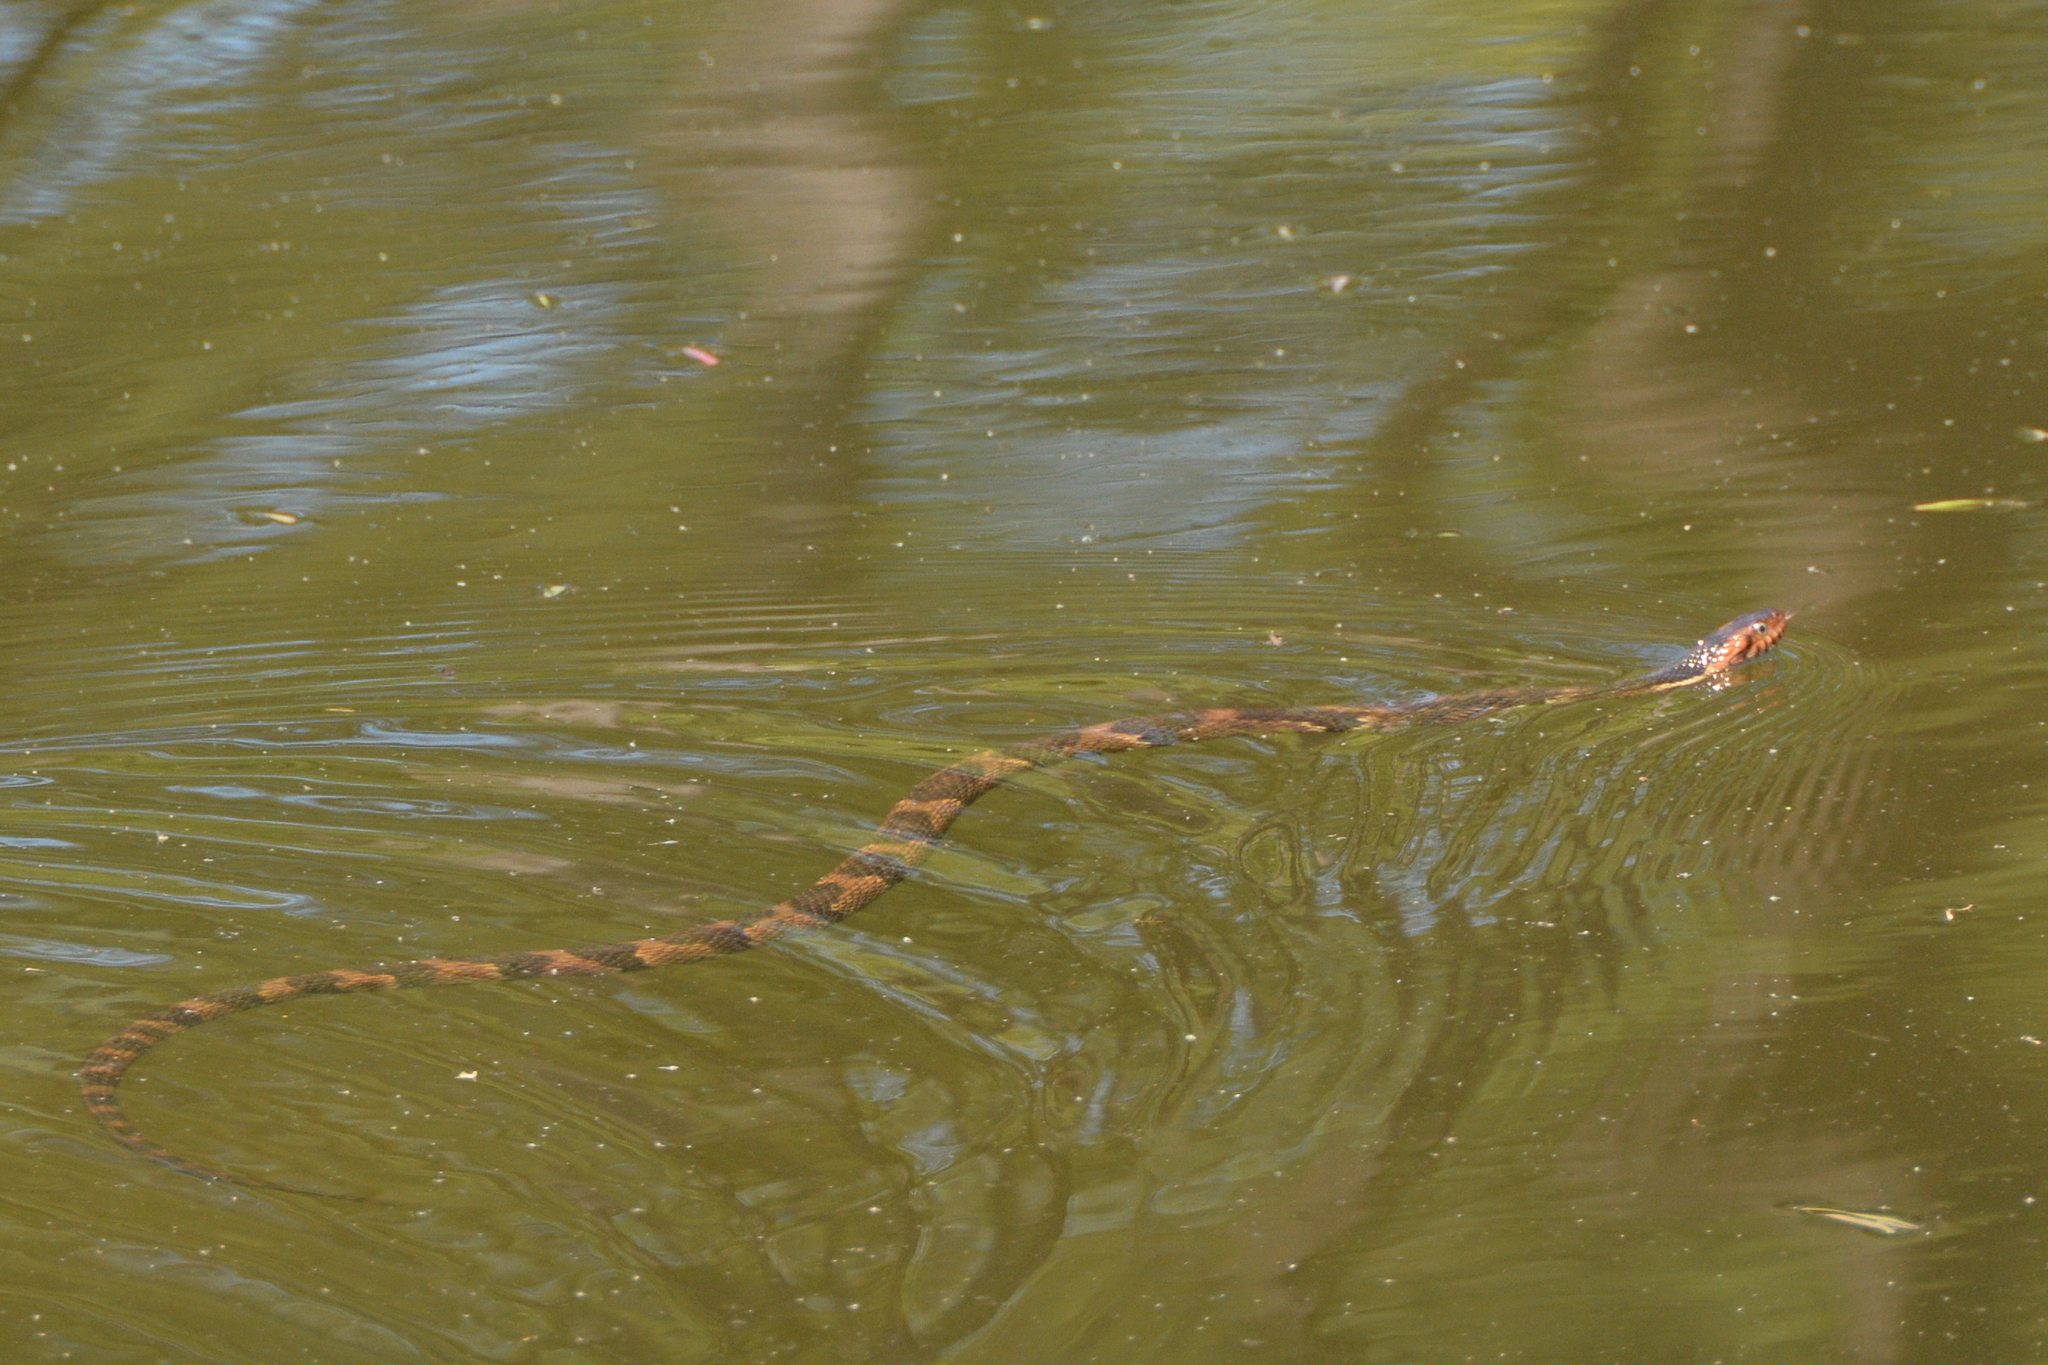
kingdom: Animalia
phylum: Chordata
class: Squamata
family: Colubridae
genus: Nerodia
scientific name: Nerodia fasciata
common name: Southern water snake
